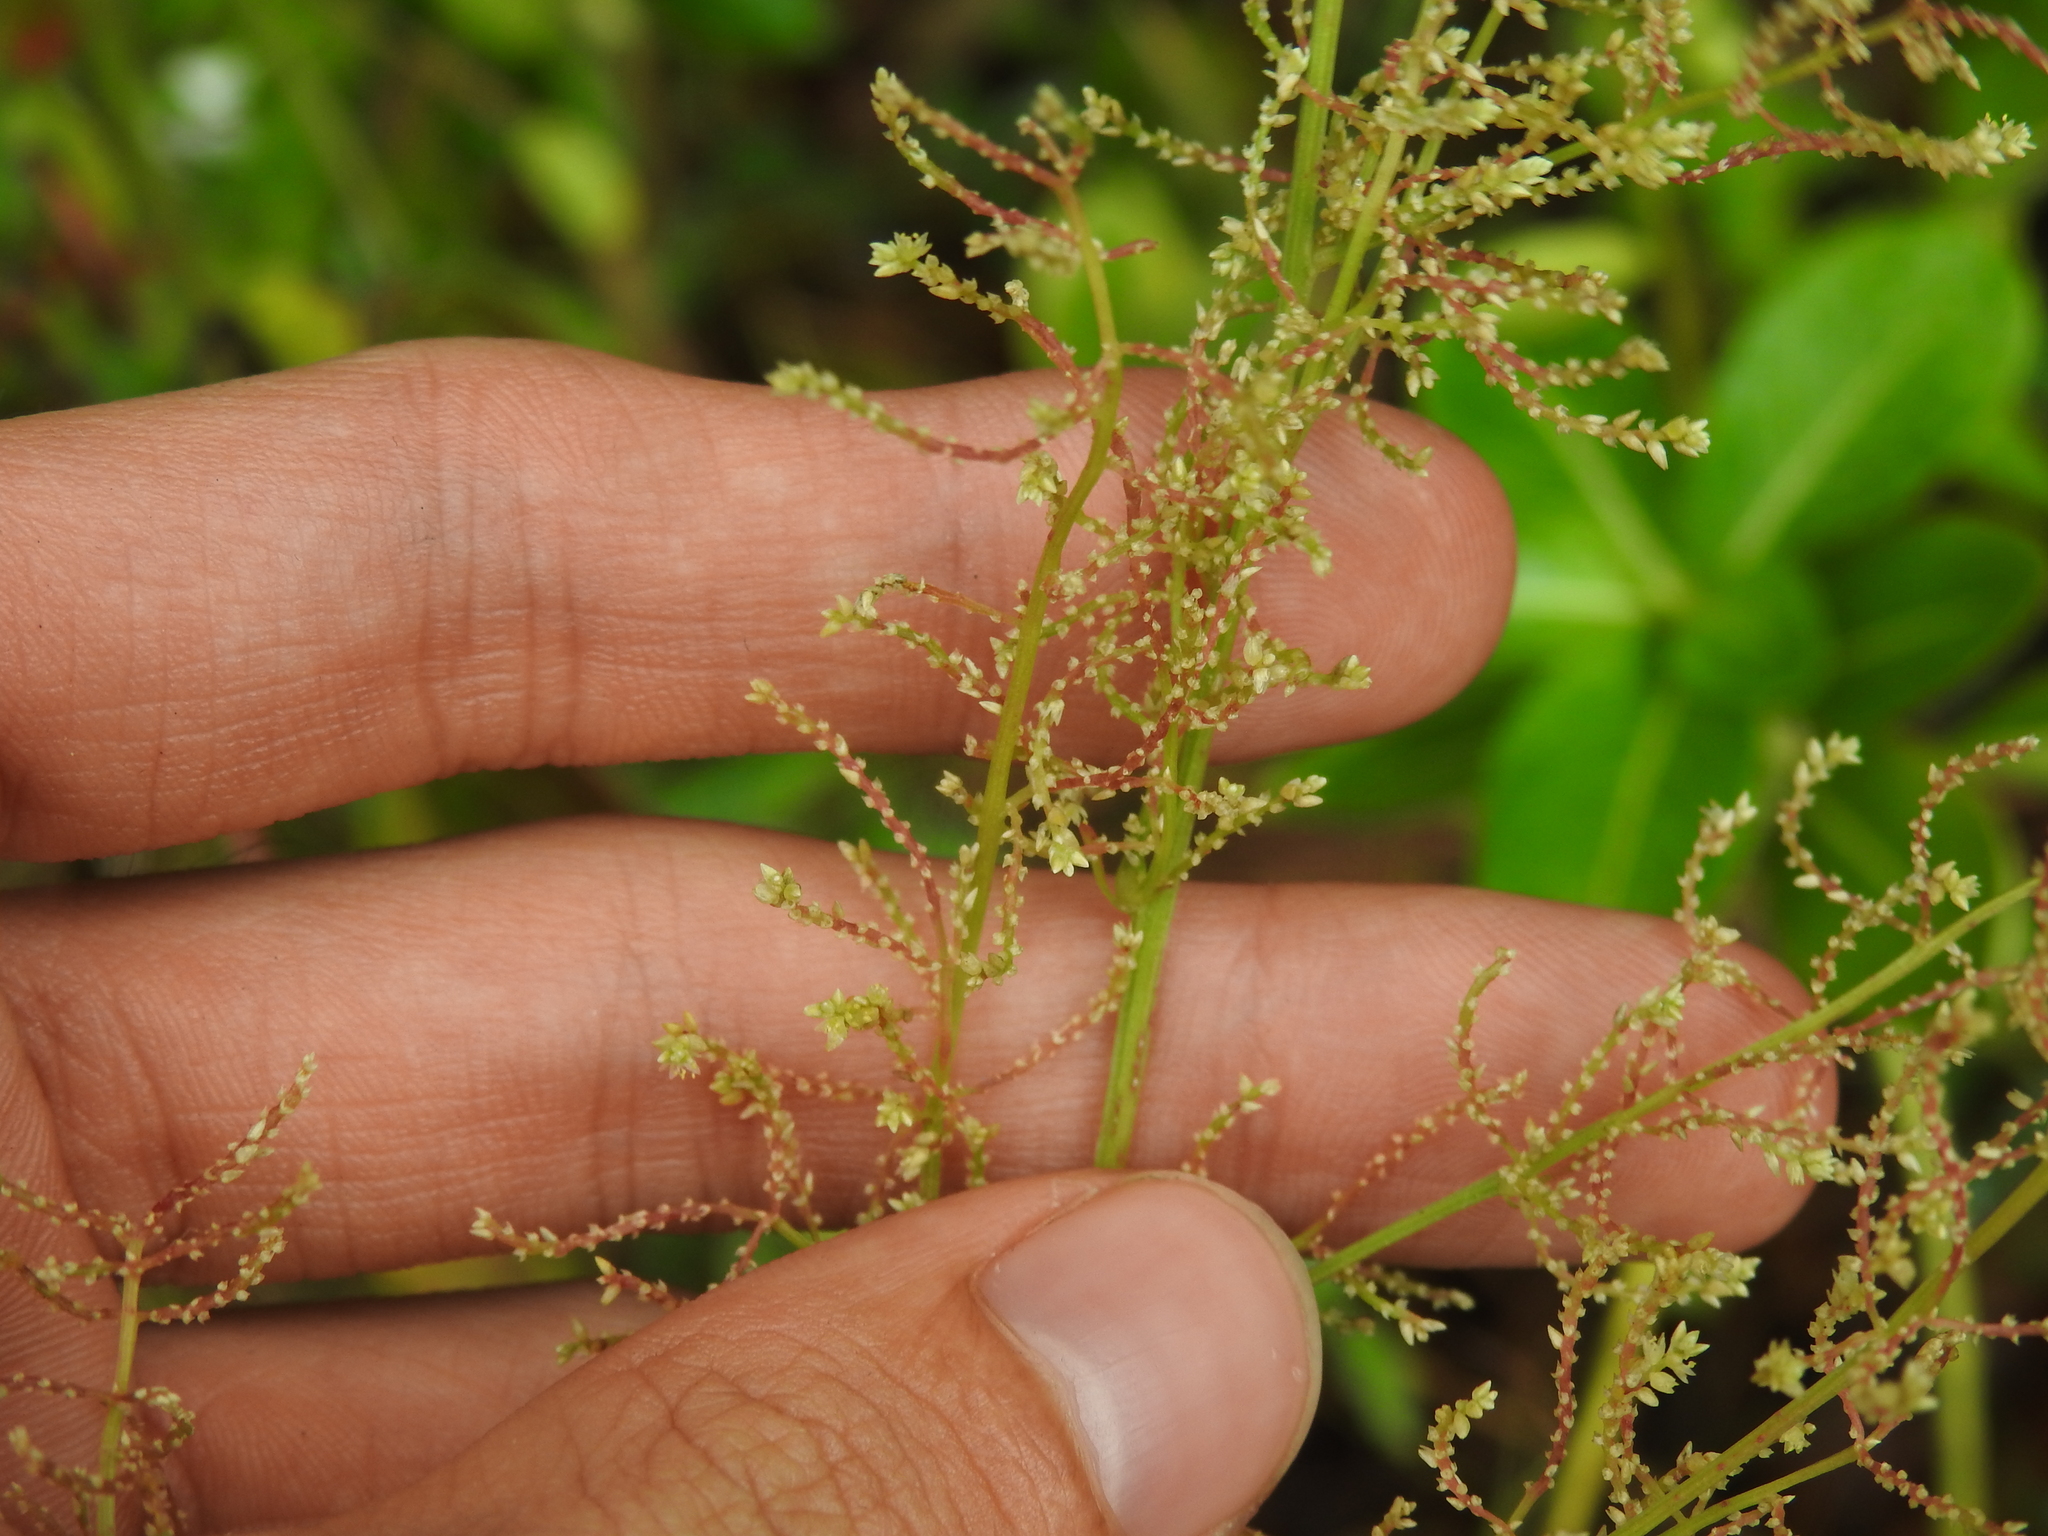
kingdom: Plantae
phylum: Tracheophyta
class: Magnoliopsida
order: Caryophyllales
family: Amaranthaceae
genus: Iresine
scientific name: Iresine diffusa
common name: Juba's-bush
